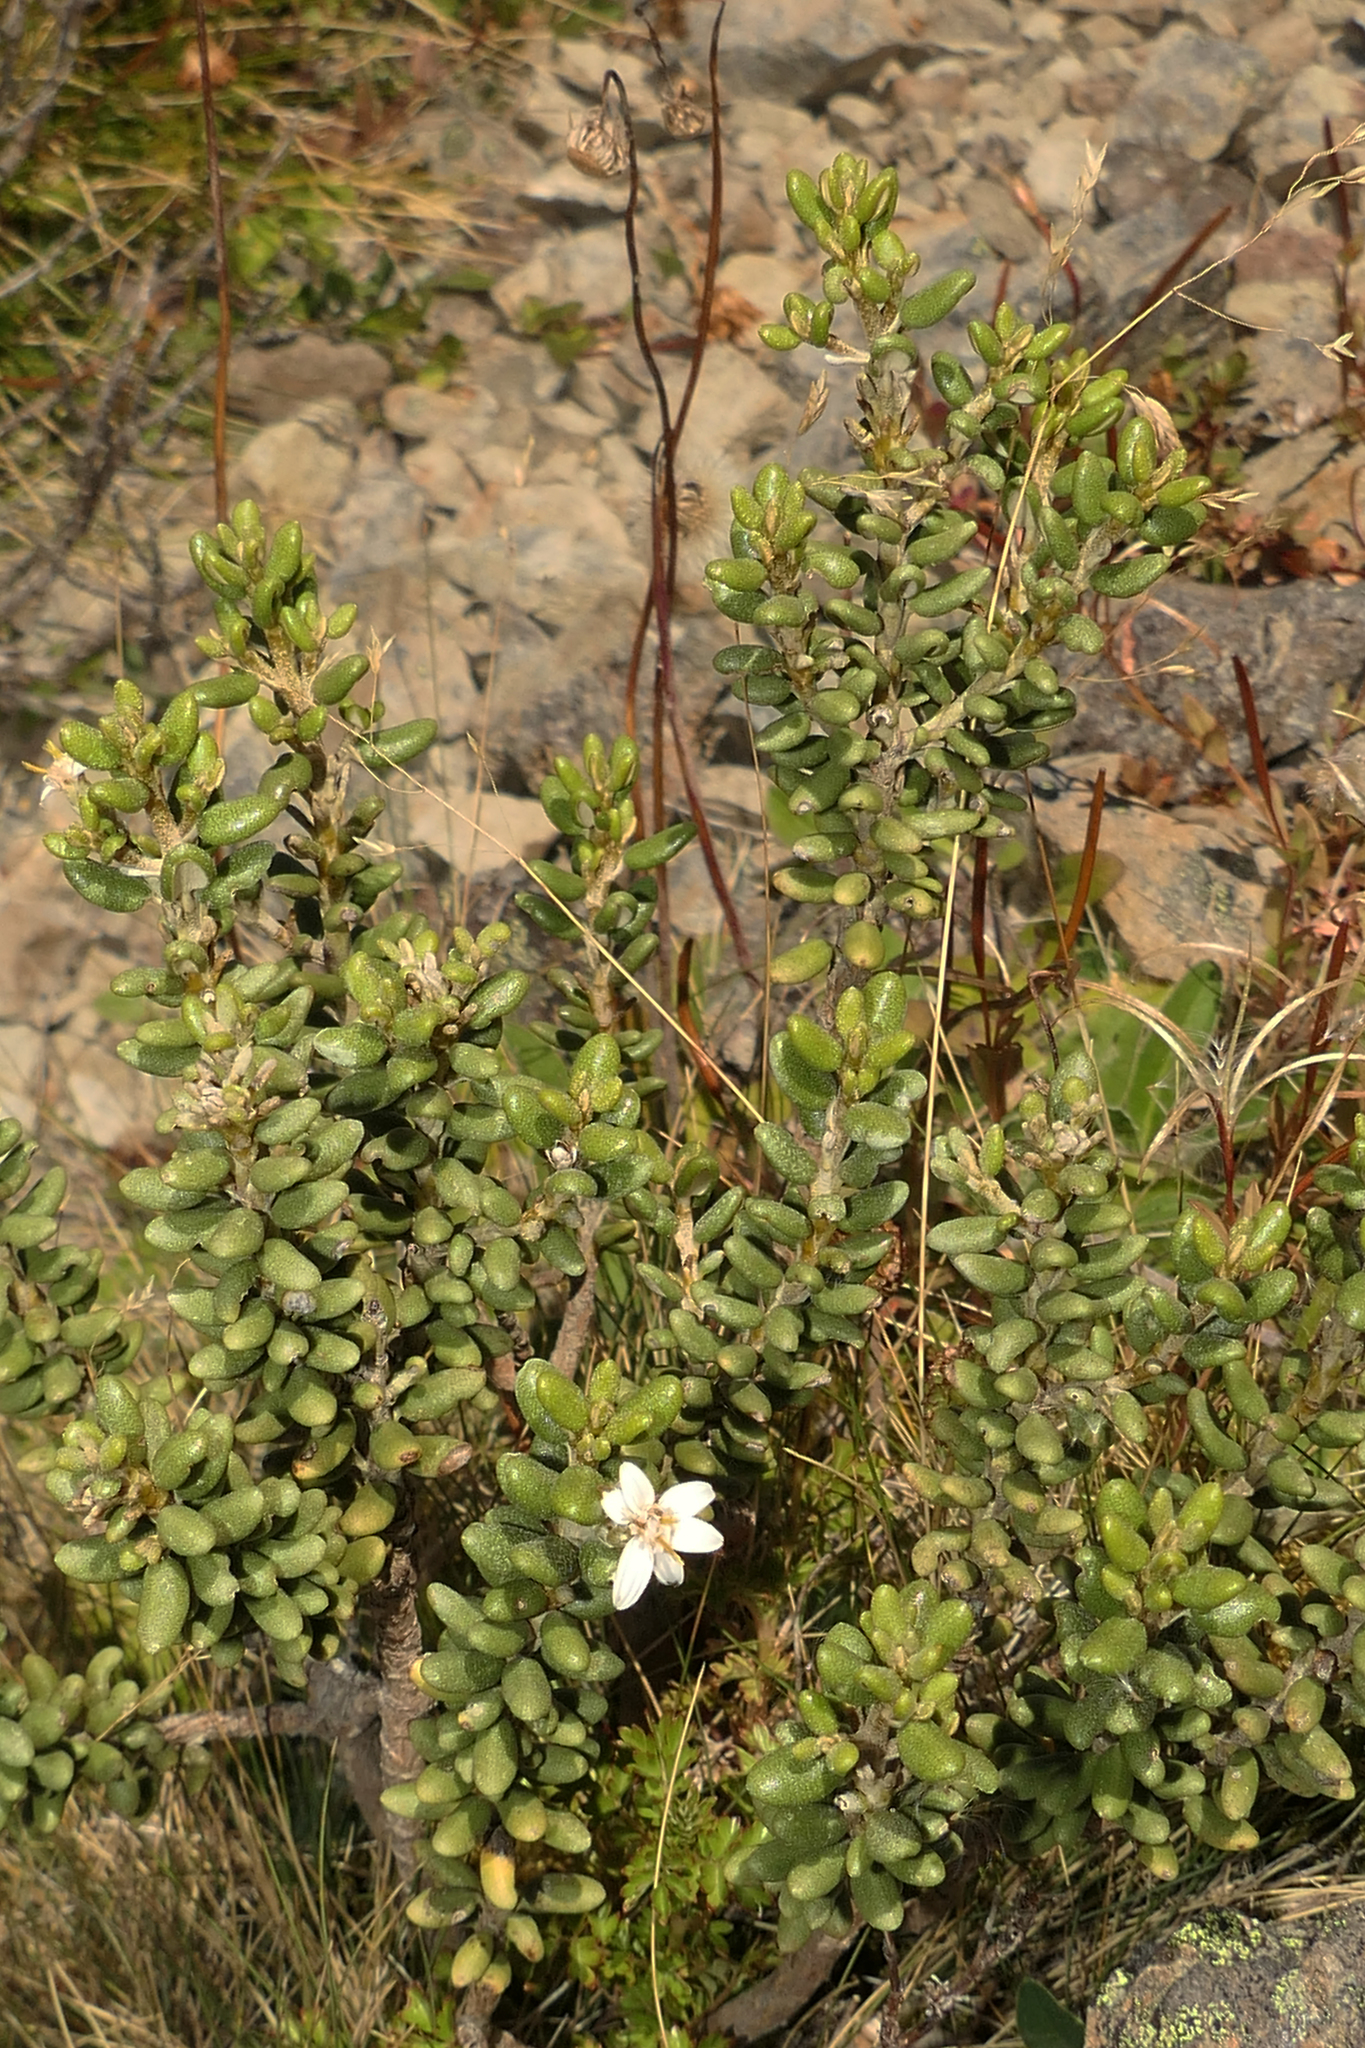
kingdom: Plantae
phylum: Tracheophyta
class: Magnoliopsida
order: Asterales
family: Asteraceae
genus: Olearia
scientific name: Olearia cymbifolia
